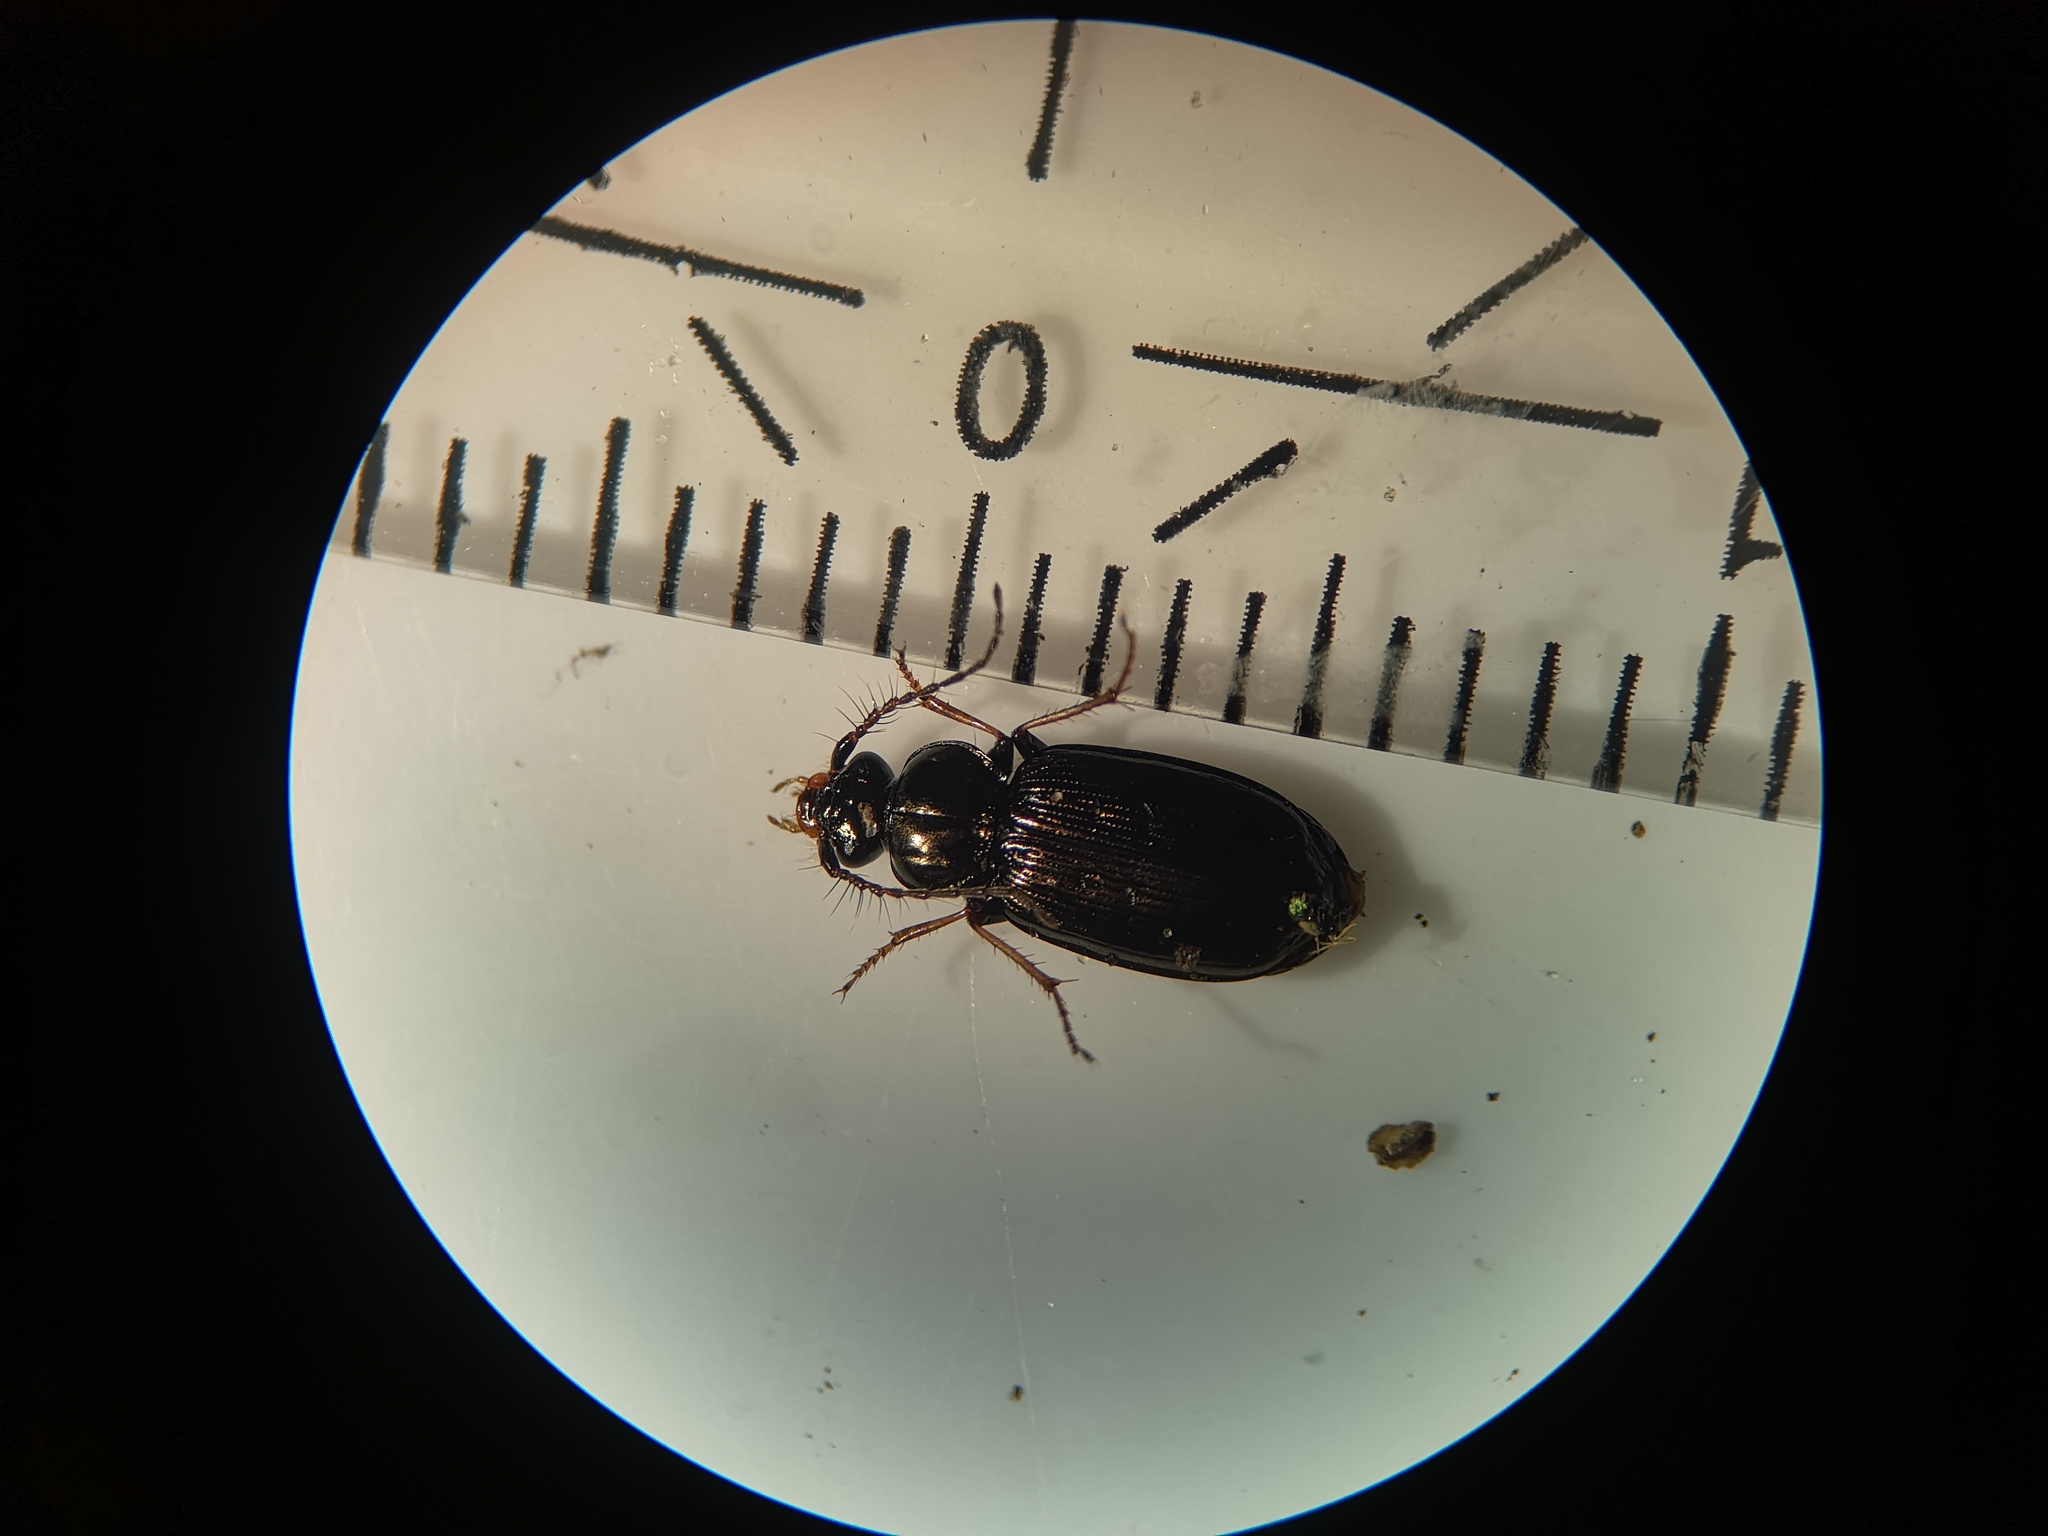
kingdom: Animalia
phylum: Arthropoda
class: Insecta
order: Coleoptera
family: Carabidae
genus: Loricera
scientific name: Loricera pilicornis
